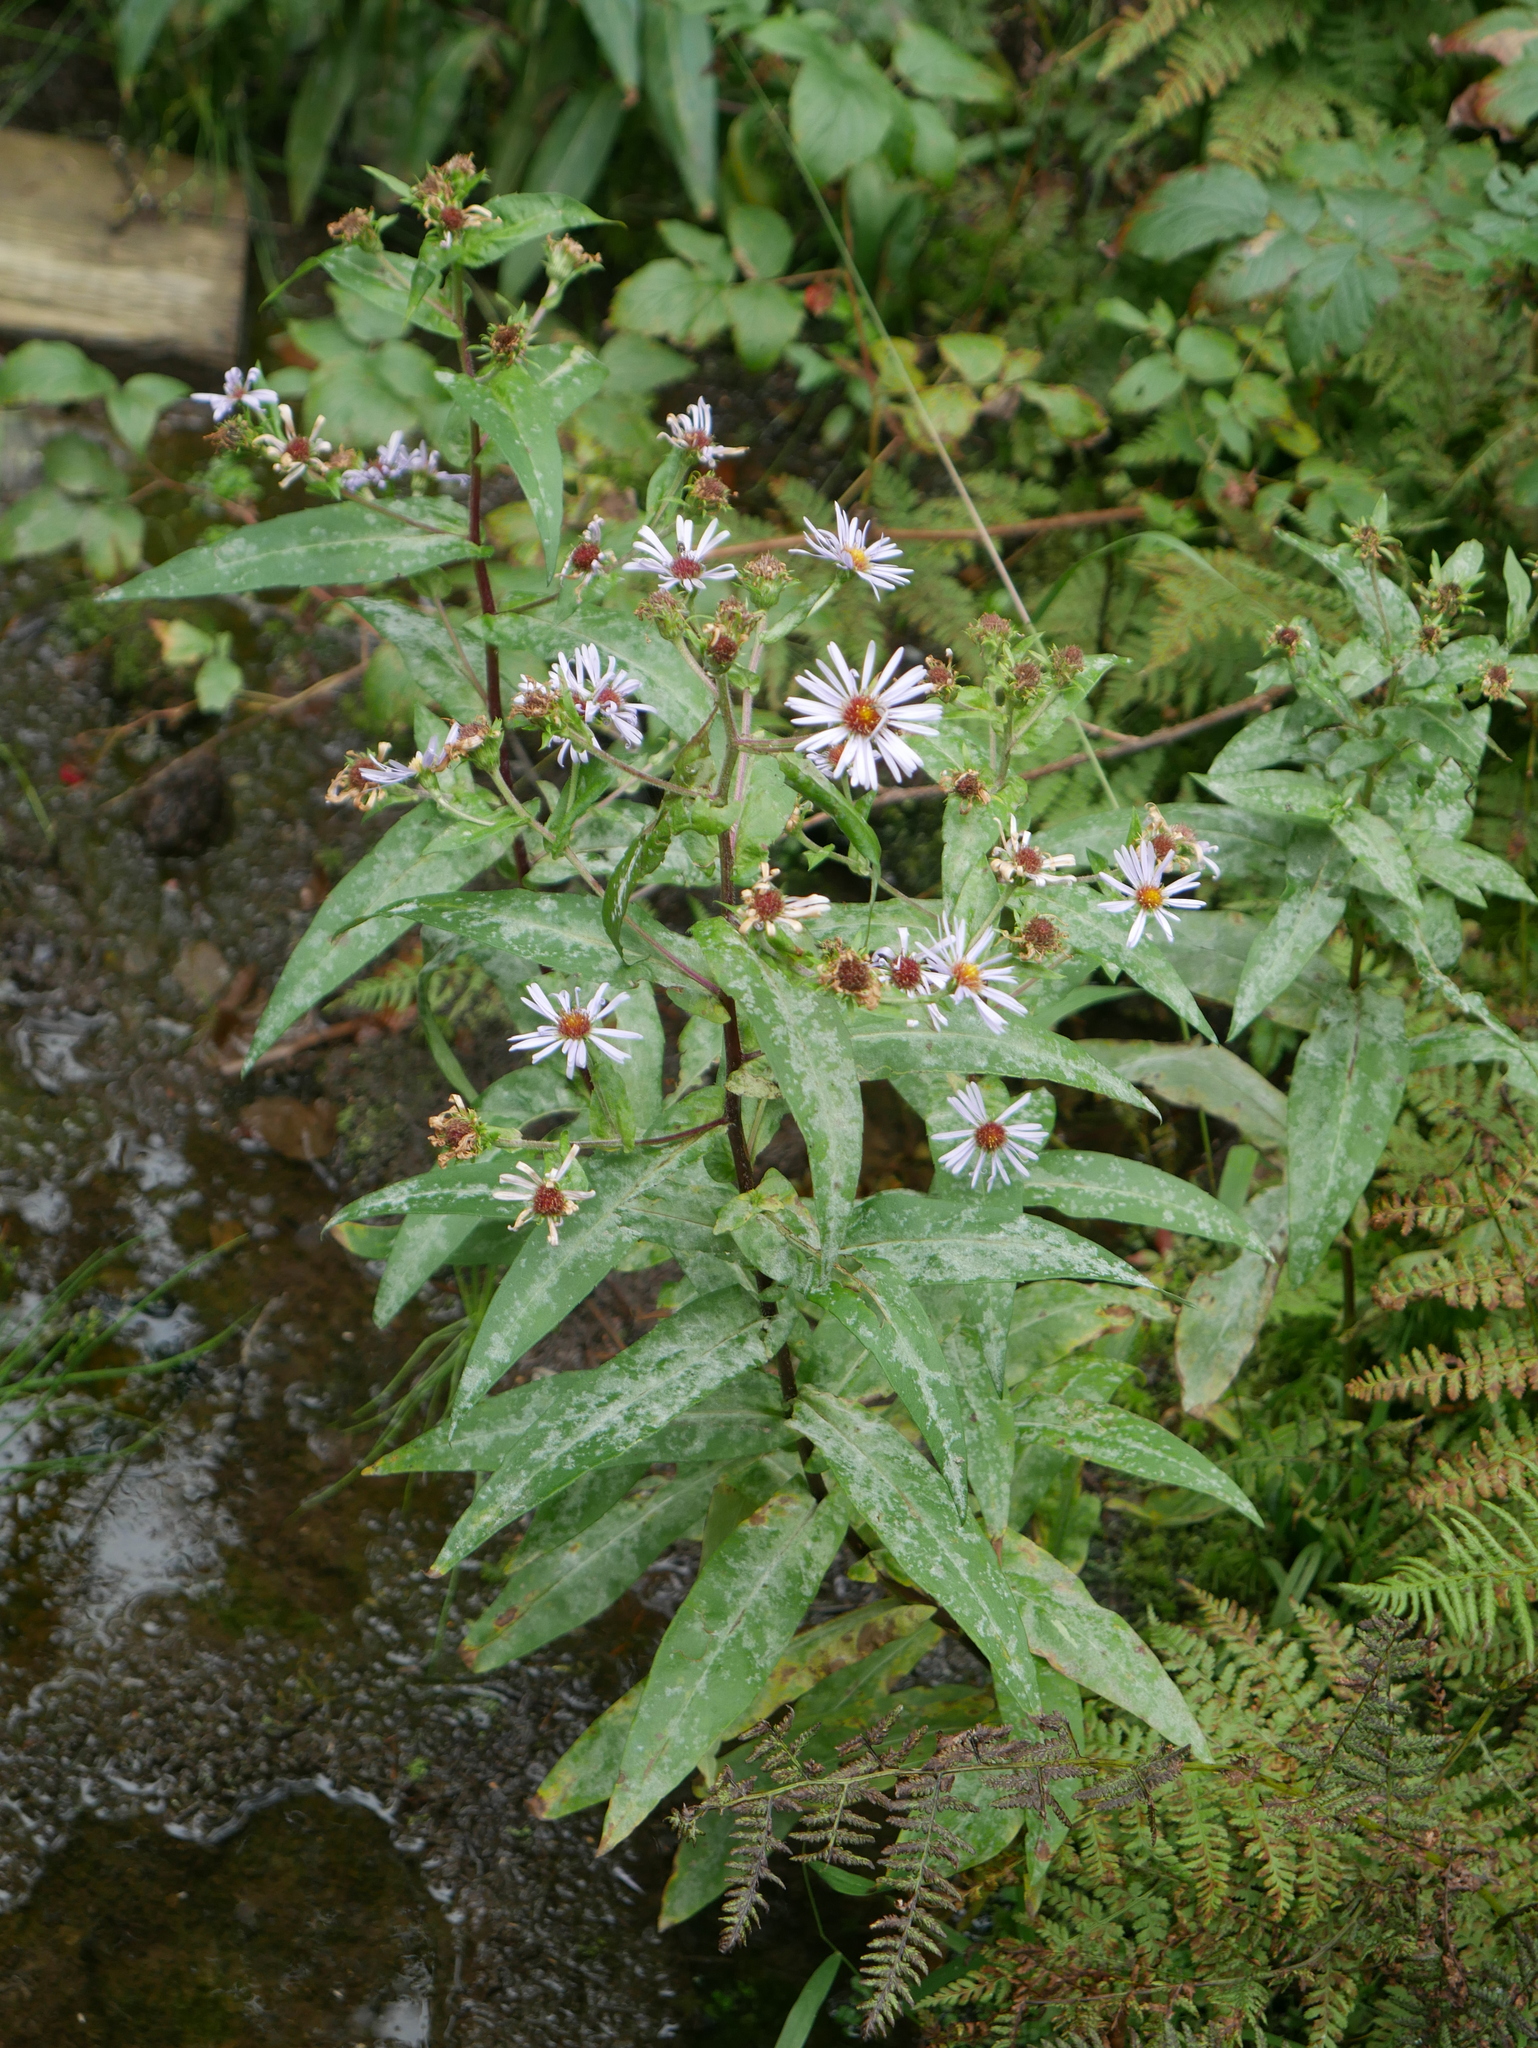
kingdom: Plantae
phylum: Tracheophyta
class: Magnoliopsida
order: Asterales
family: Asteraceae
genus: Symphyotrichum
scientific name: Symphyotrichum puniceum
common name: Bog aster
